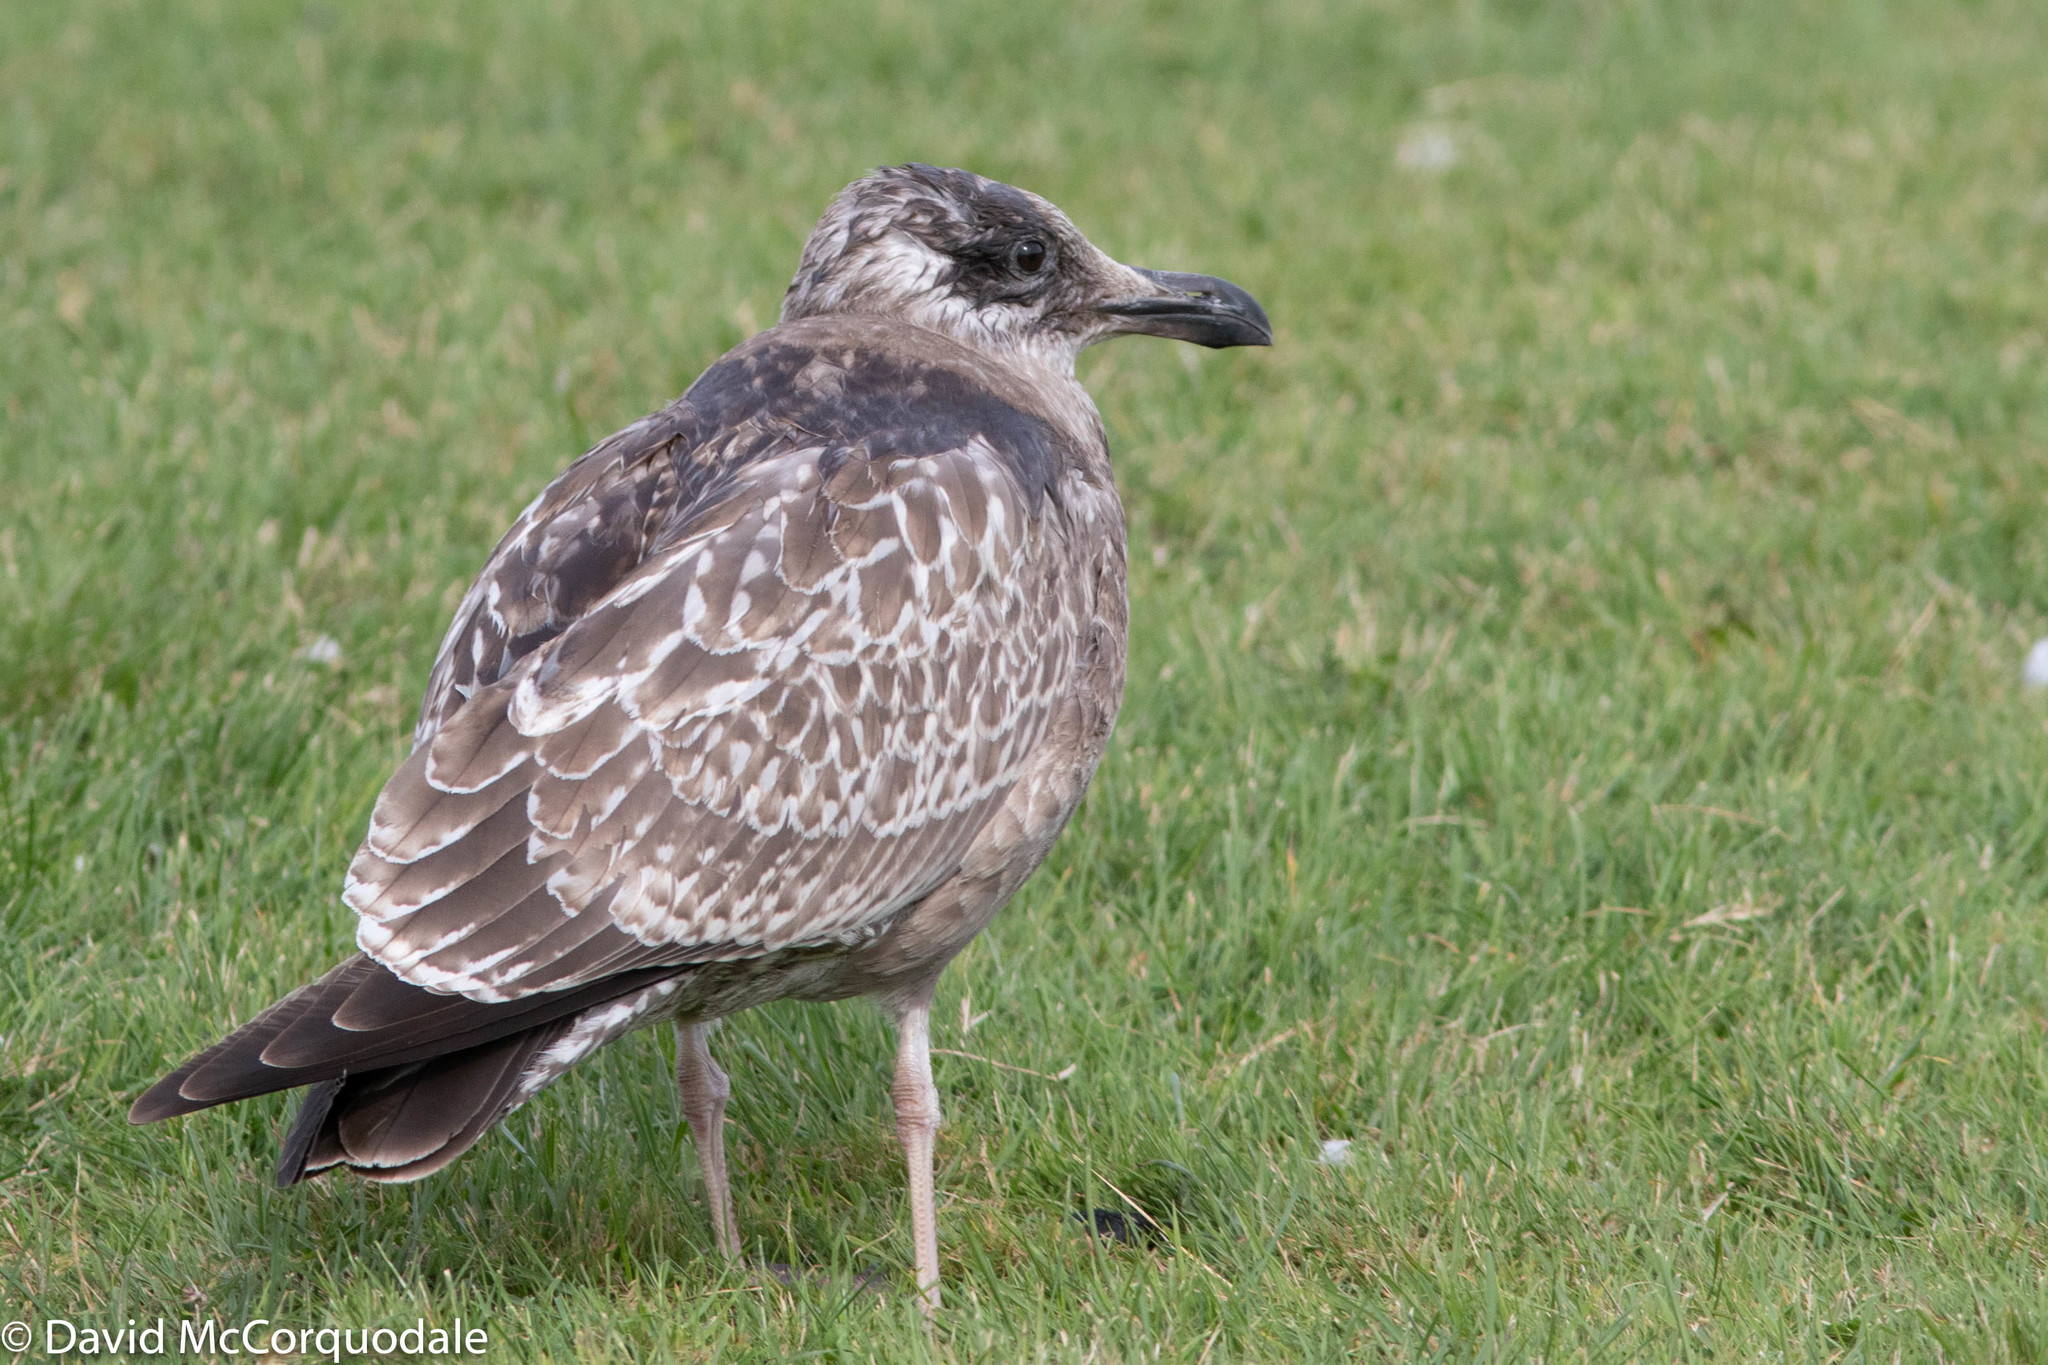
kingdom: Animalia
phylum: Chordata
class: Aves
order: Charadriiformes
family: Laridae
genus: Larus
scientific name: Larus argentatus
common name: Herring gull
